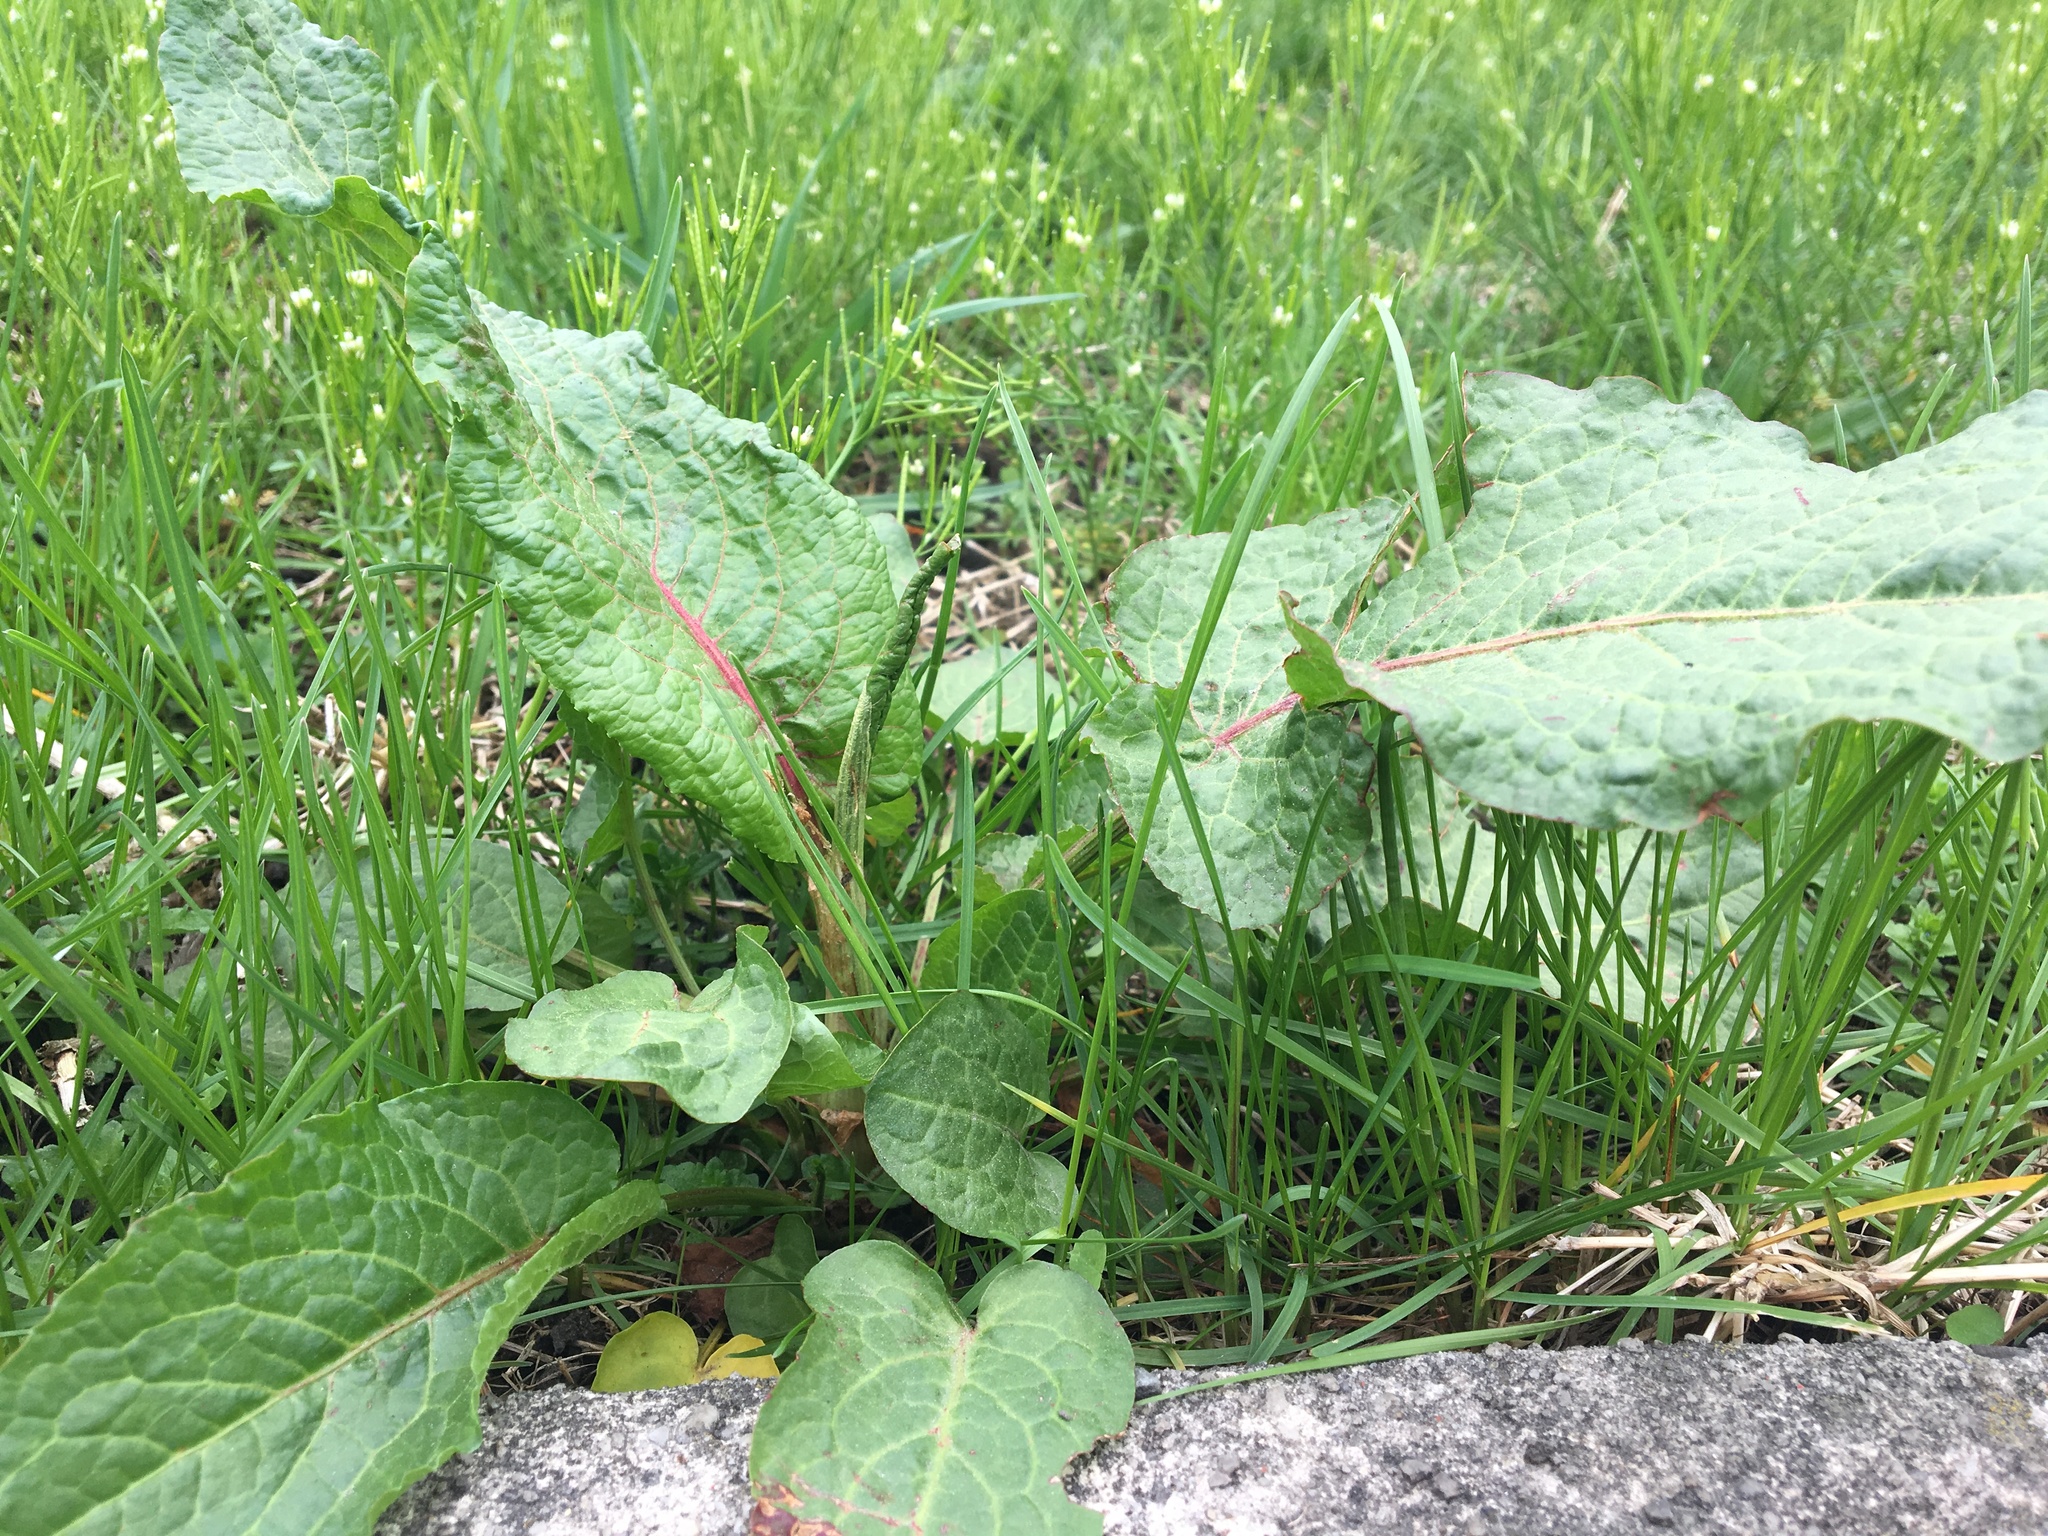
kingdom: Plantae
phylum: Tracheophyta
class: Magnoliopsida
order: Caryophyllales
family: Polygonaceae
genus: Rumex
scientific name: Rumex obtusifolius
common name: Bitter dock
